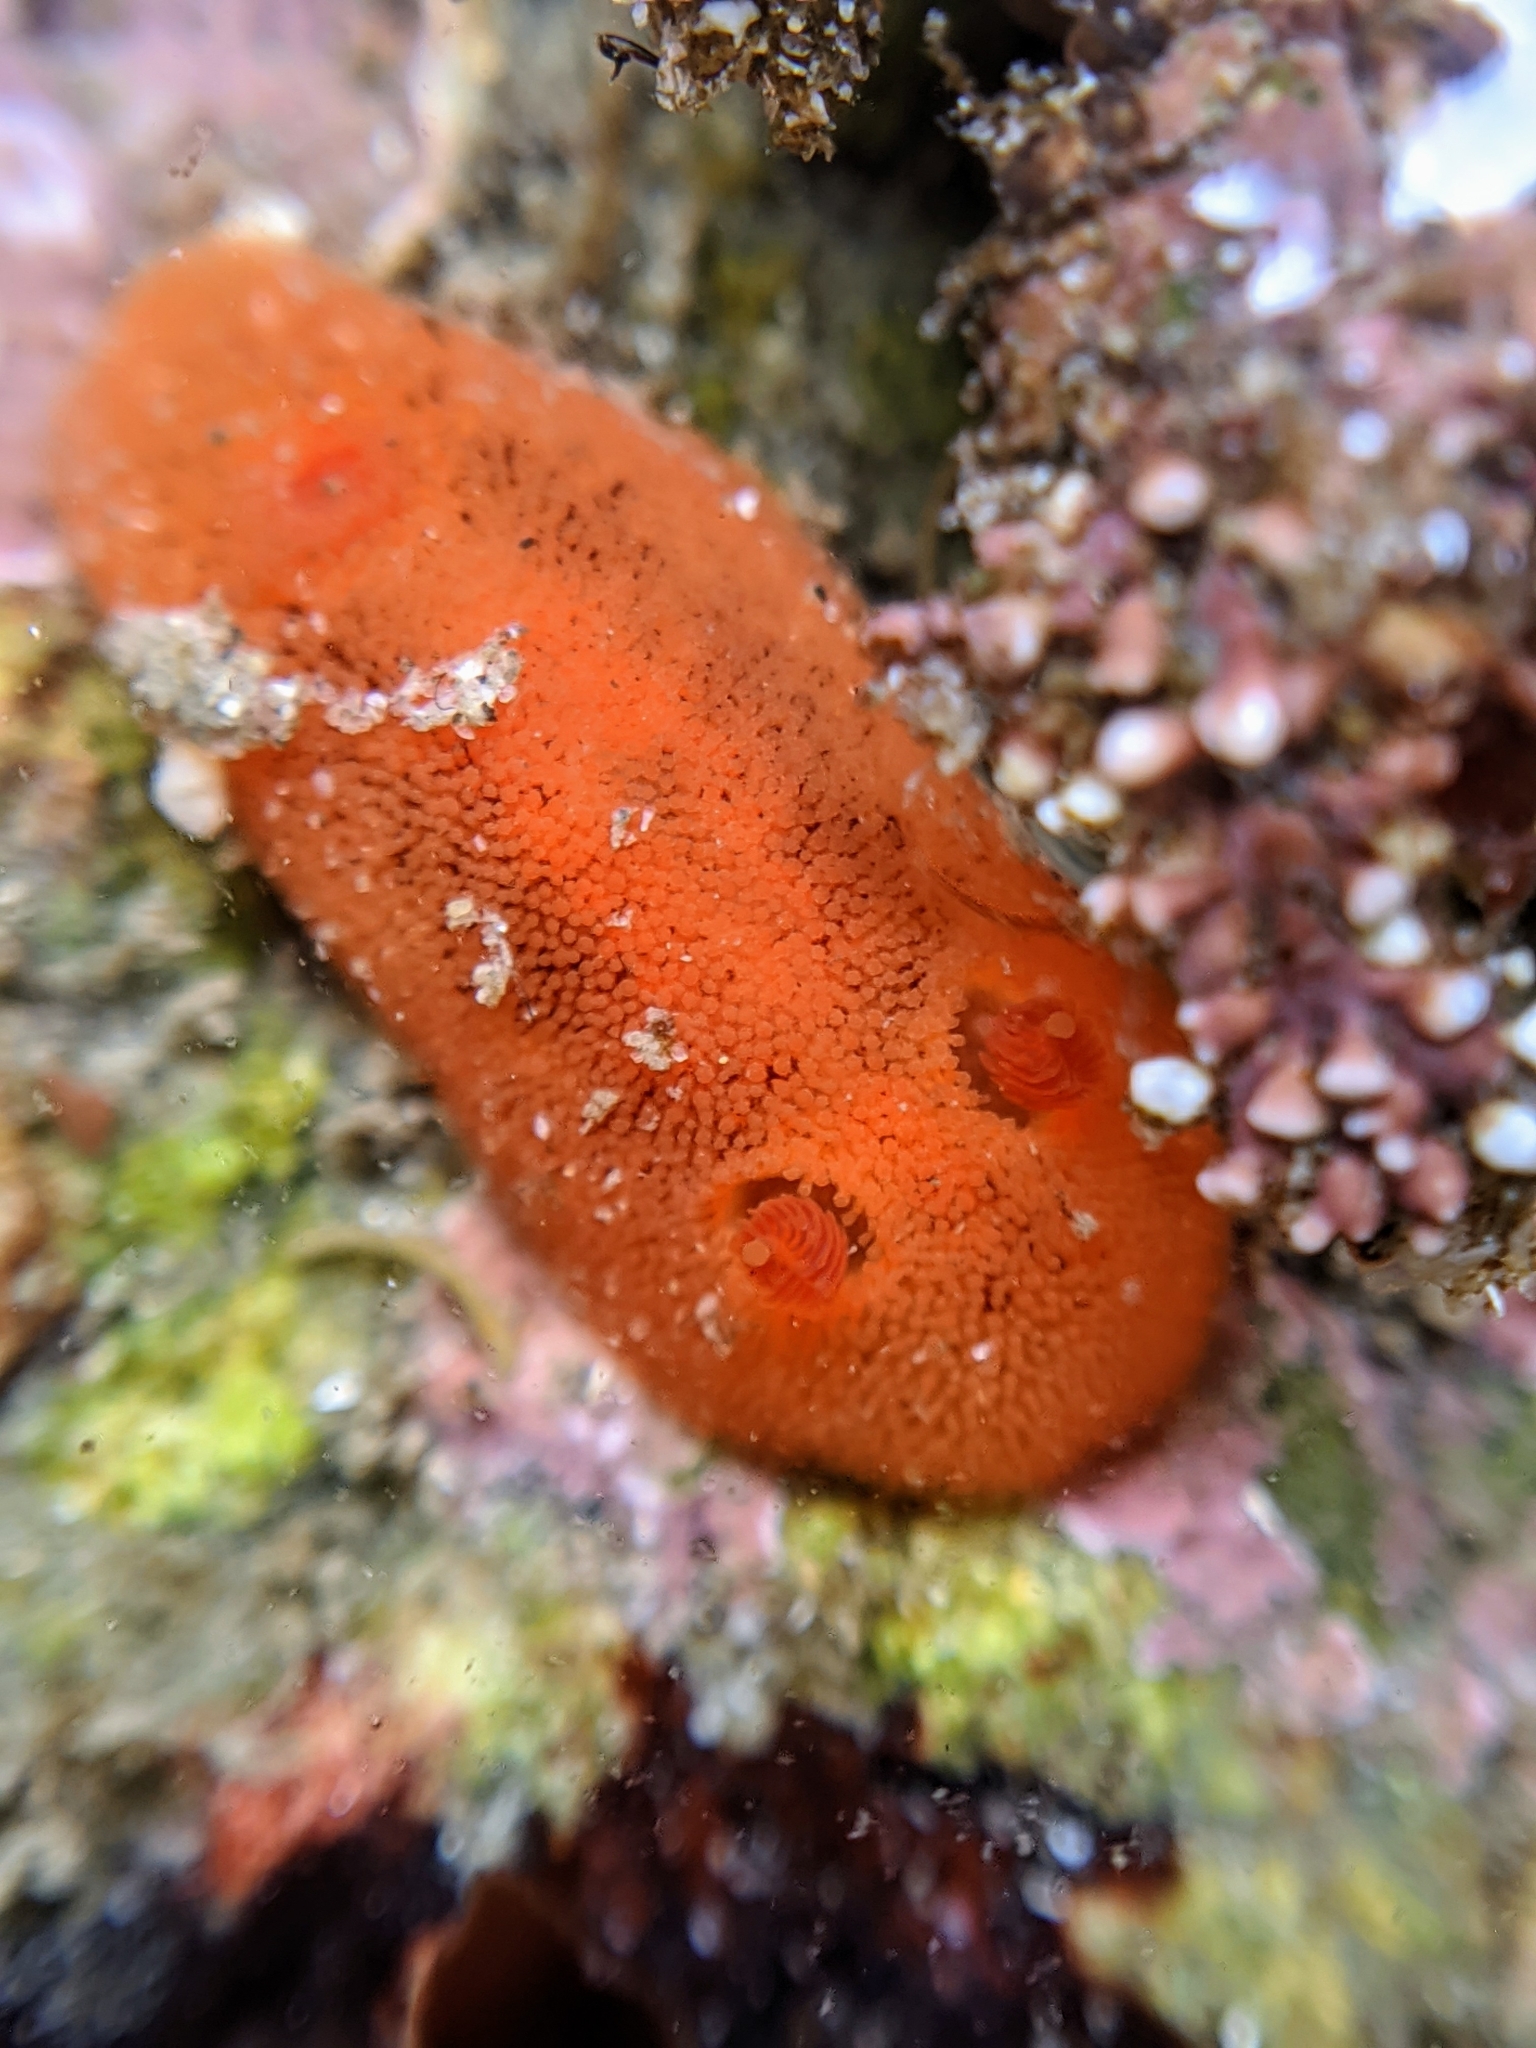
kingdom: Animalia
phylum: Mollusca
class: Gastropoda
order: Nudibranchia
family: Discodorididae
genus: Rostanga
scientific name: Rostanga pulchra
